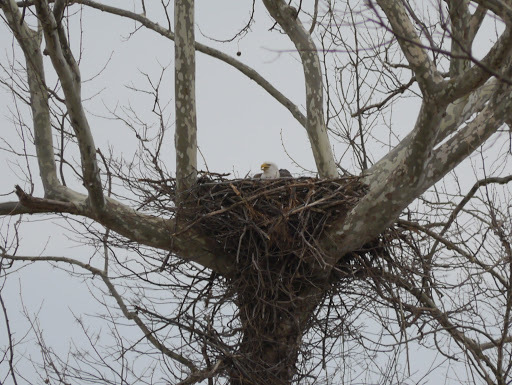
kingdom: Animalia
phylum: Chordata
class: Aves
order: Accipitriformes
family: Accipitridae
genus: Haliaeetus
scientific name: Haliaeetus leucocephalus
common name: Bald eagle
